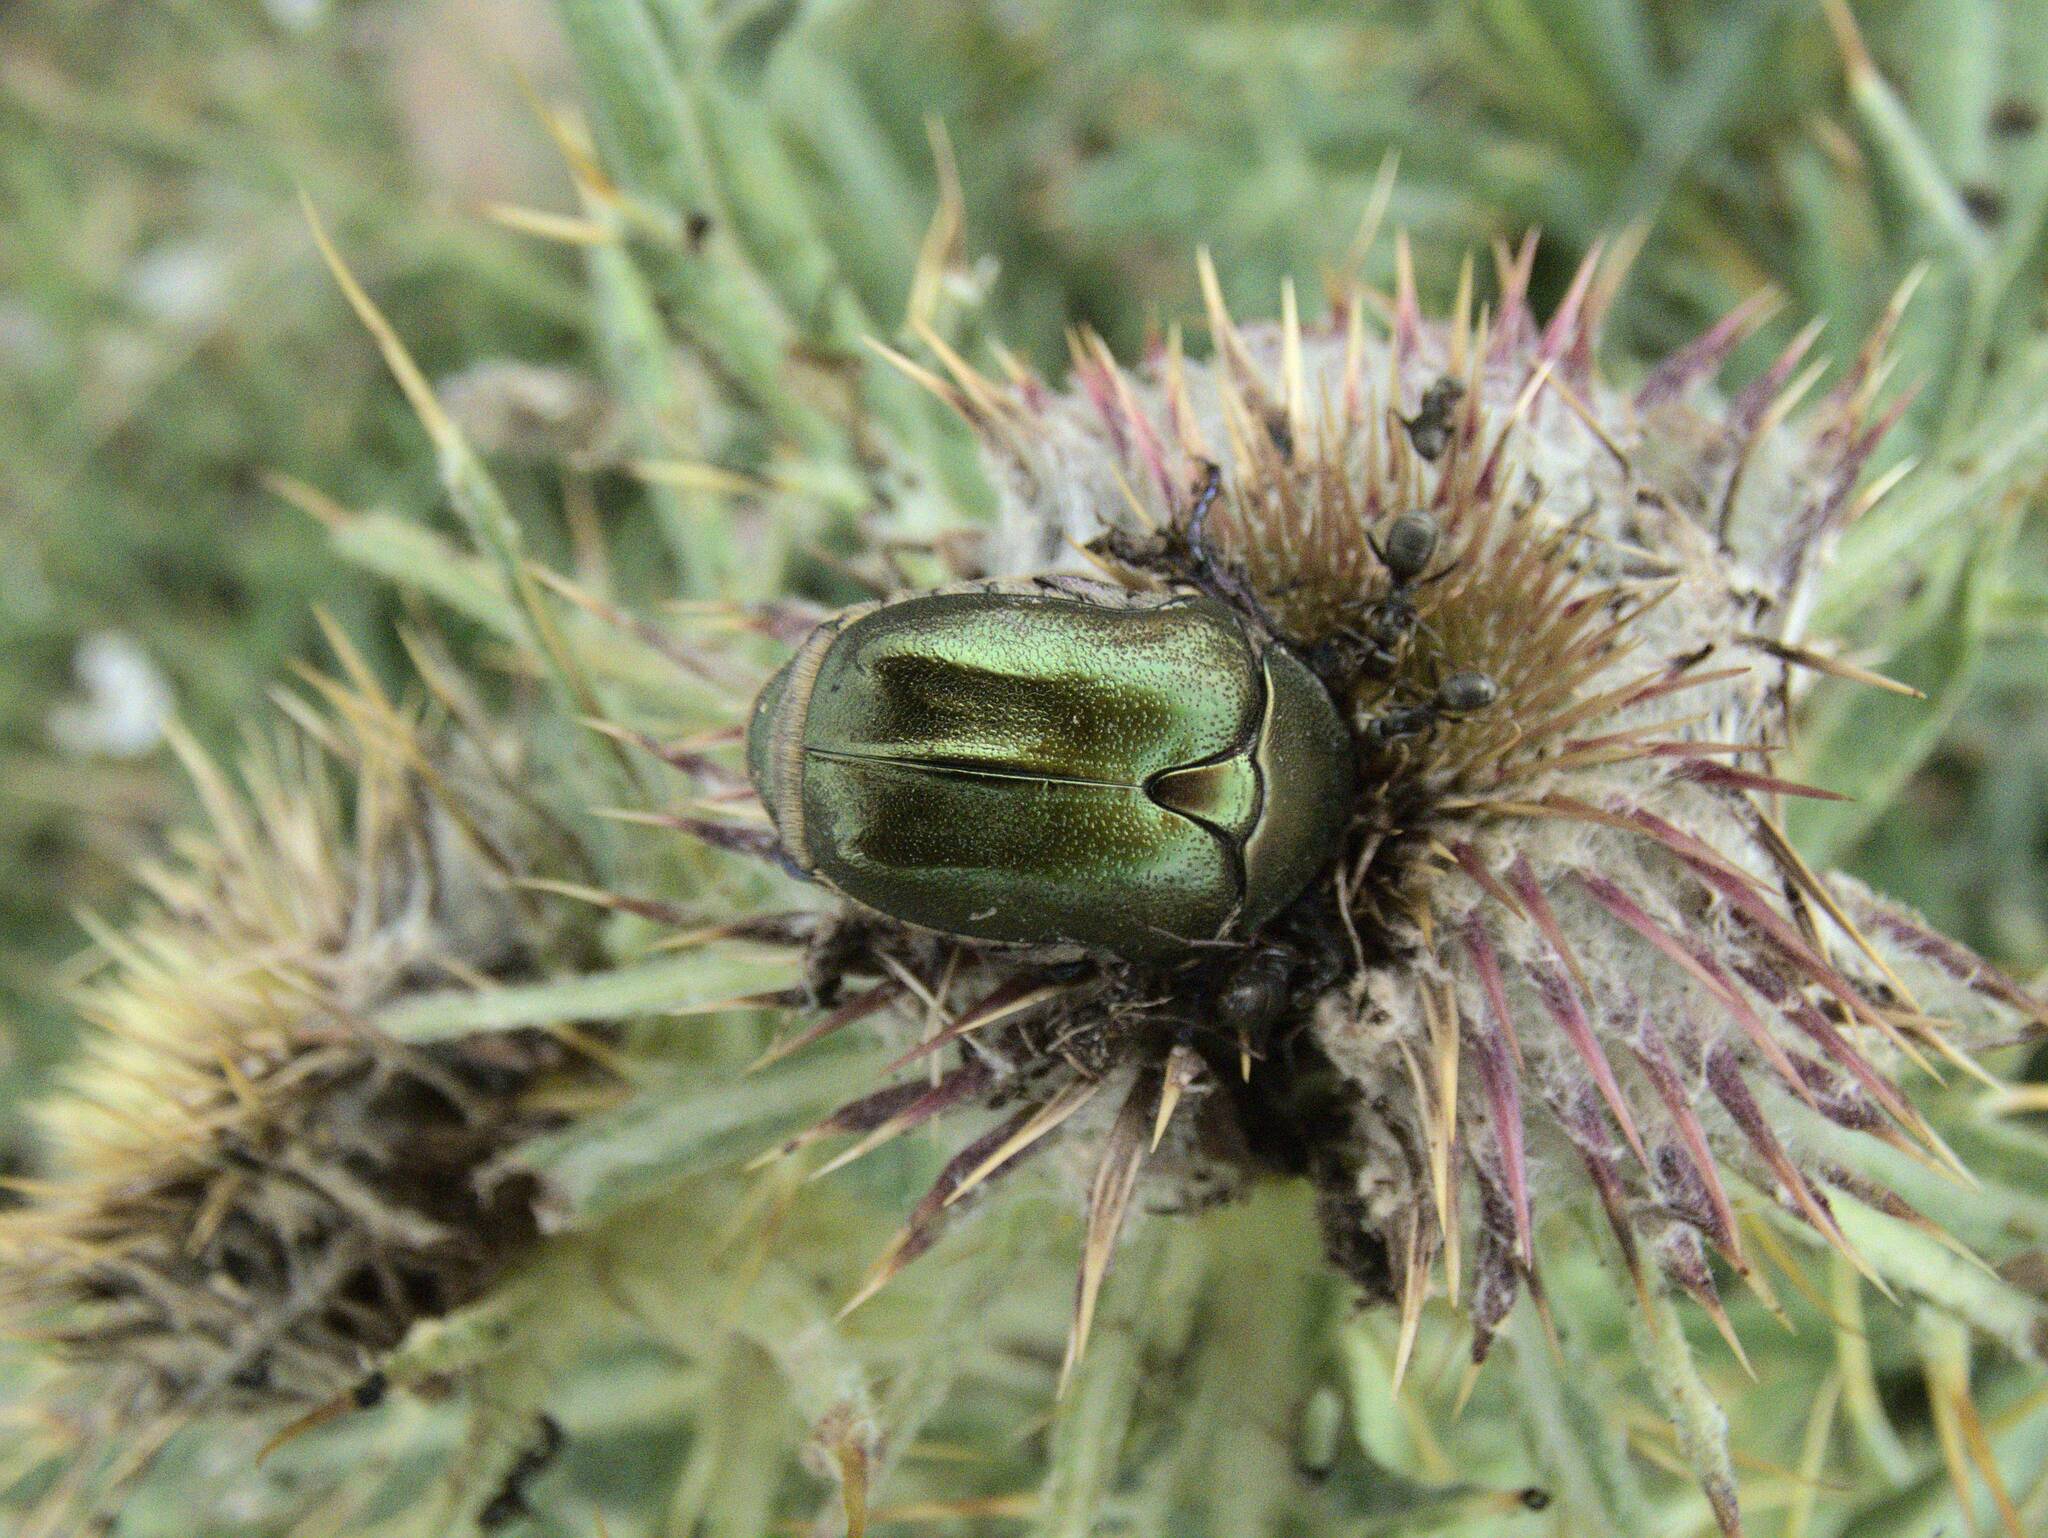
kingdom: Animalia
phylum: Arthropoda
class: Insecta
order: Coleoptera
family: Scarabaeidae
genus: Protaetia
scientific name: Protaetia cuprea
